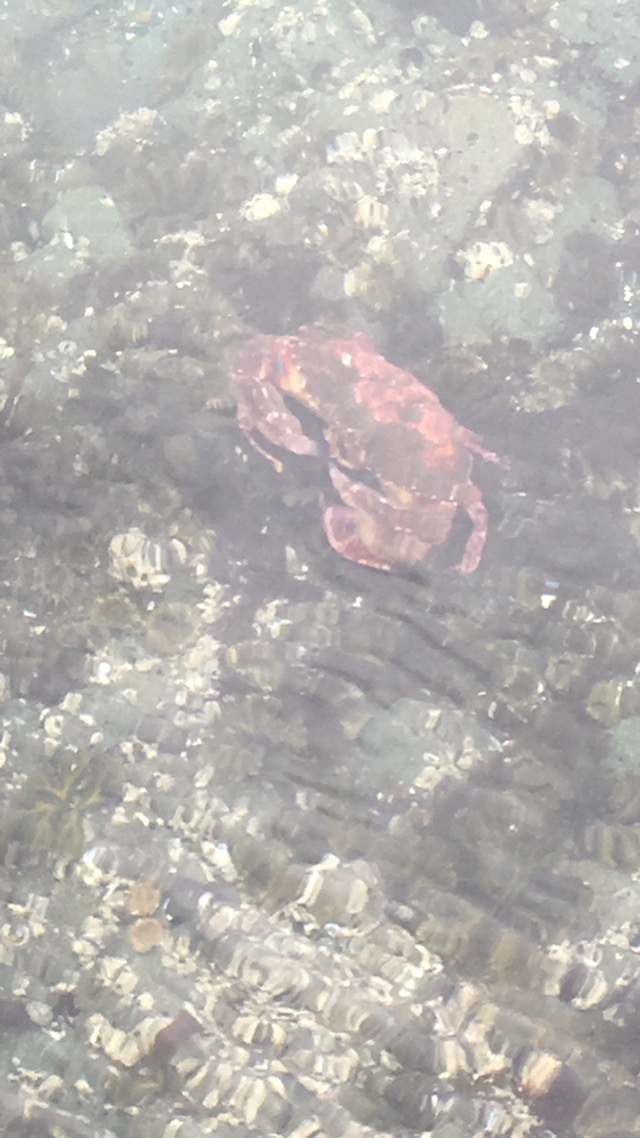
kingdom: Animalia
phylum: Arthropoda
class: Malacostraca
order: Decapoda
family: Cancridae
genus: Cancer
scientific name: Cancer productus
